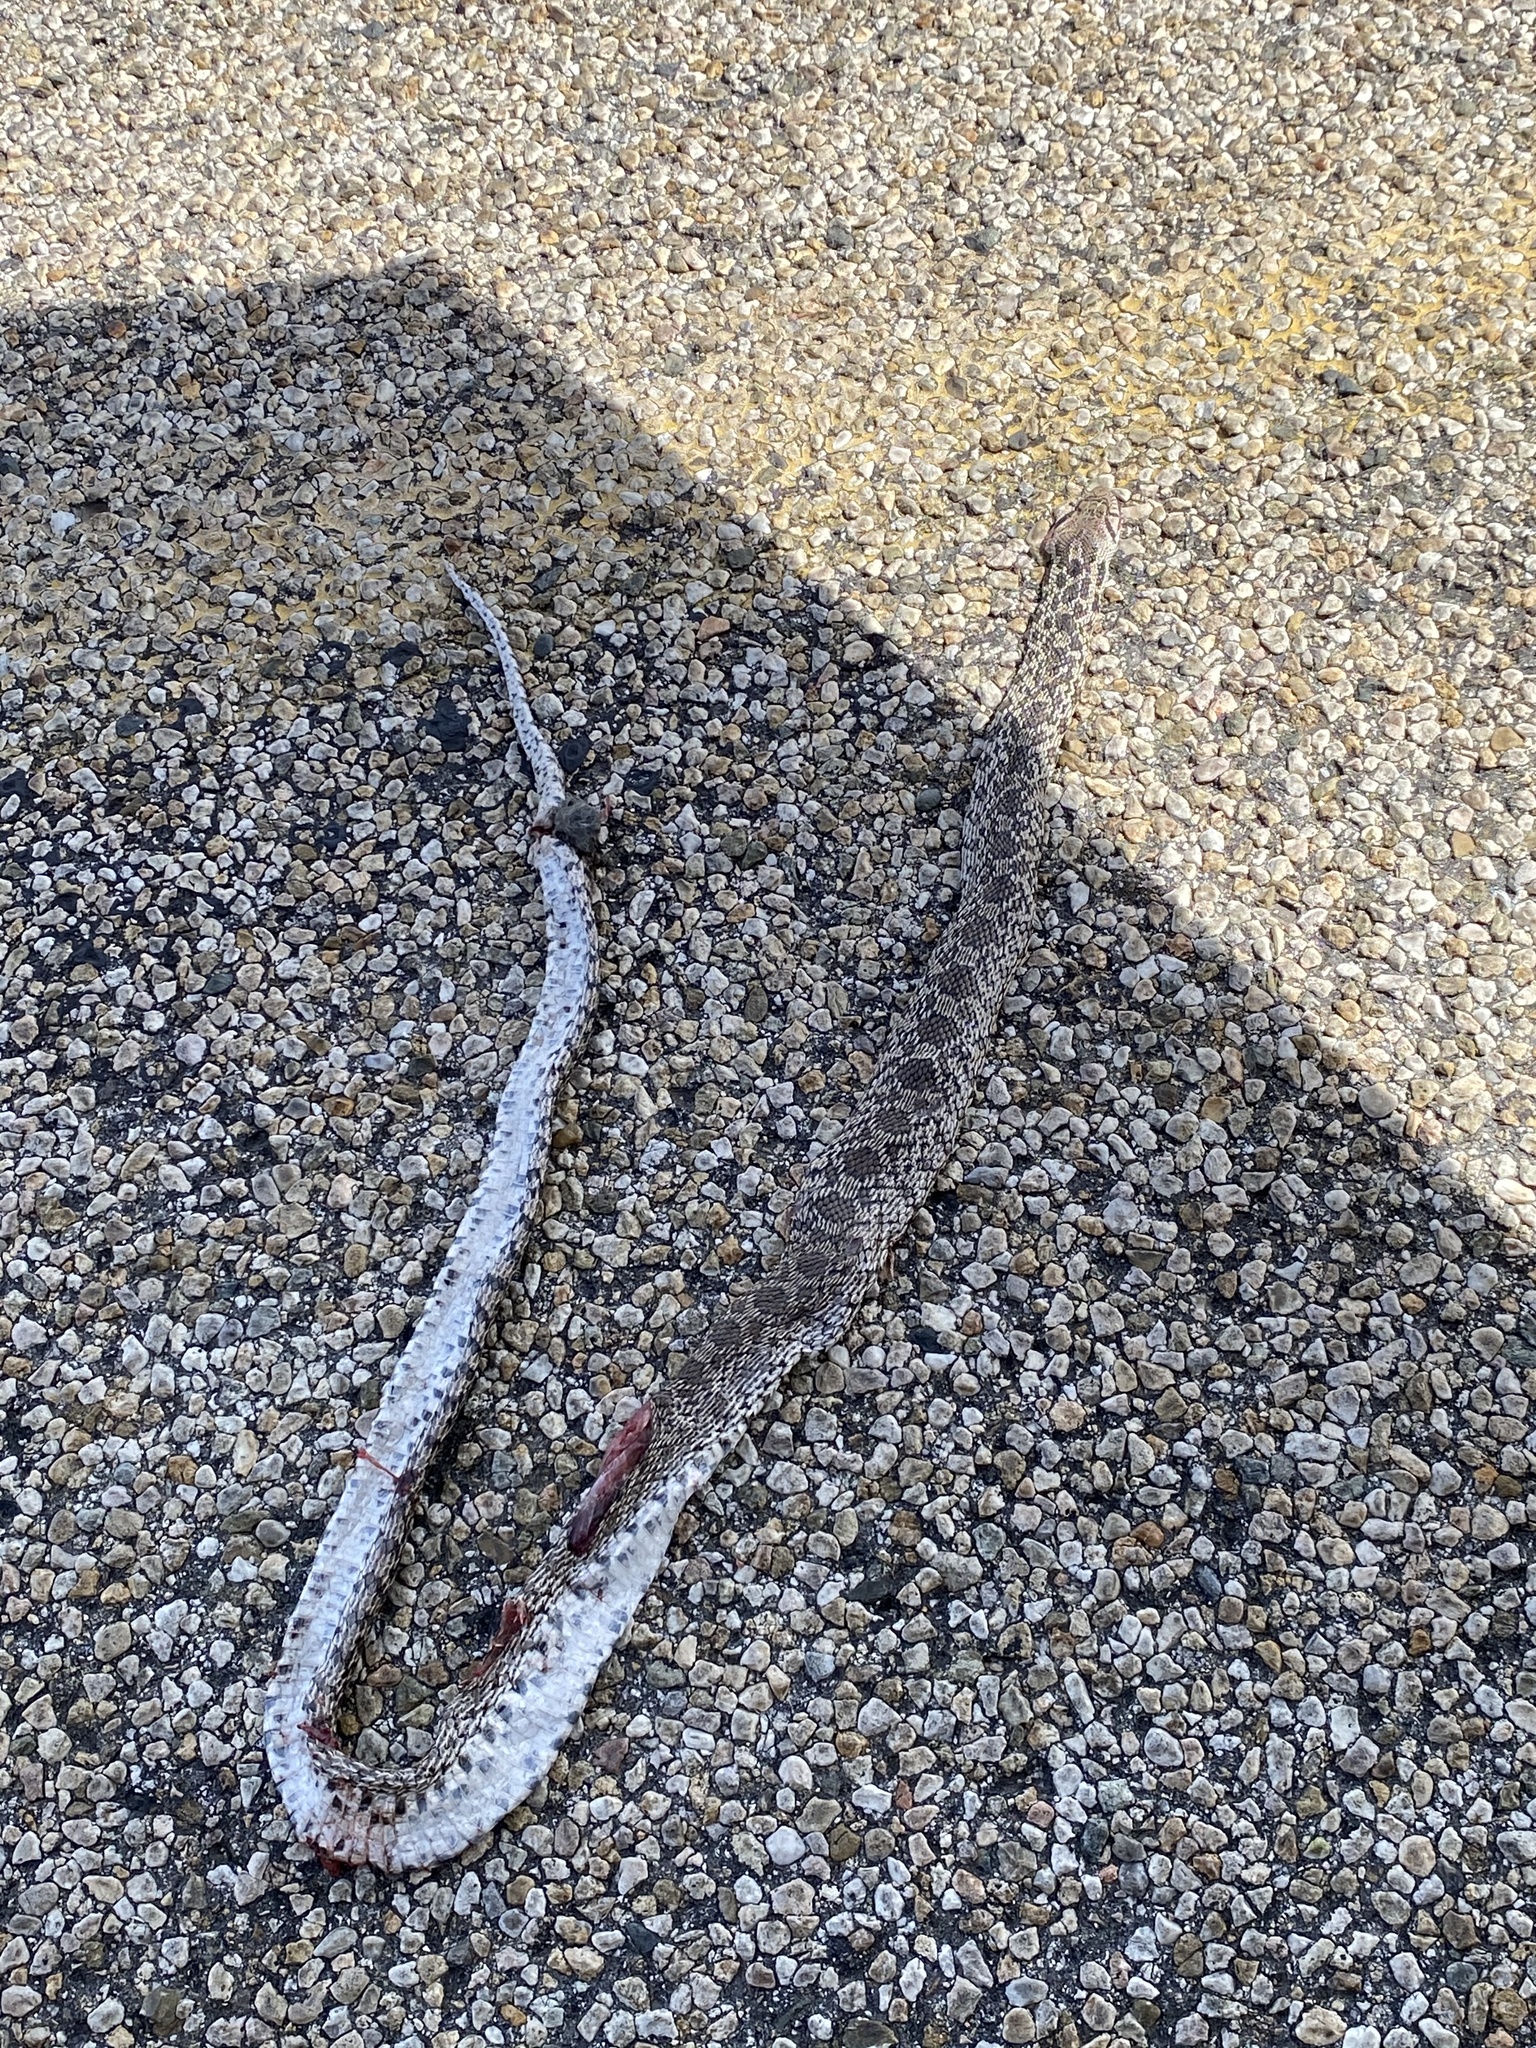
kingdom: Animalia
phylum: Chordata
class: Squamata
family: Colubridae
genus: Pituophis
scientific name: Pituophis catenifer
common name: Gopher snake
